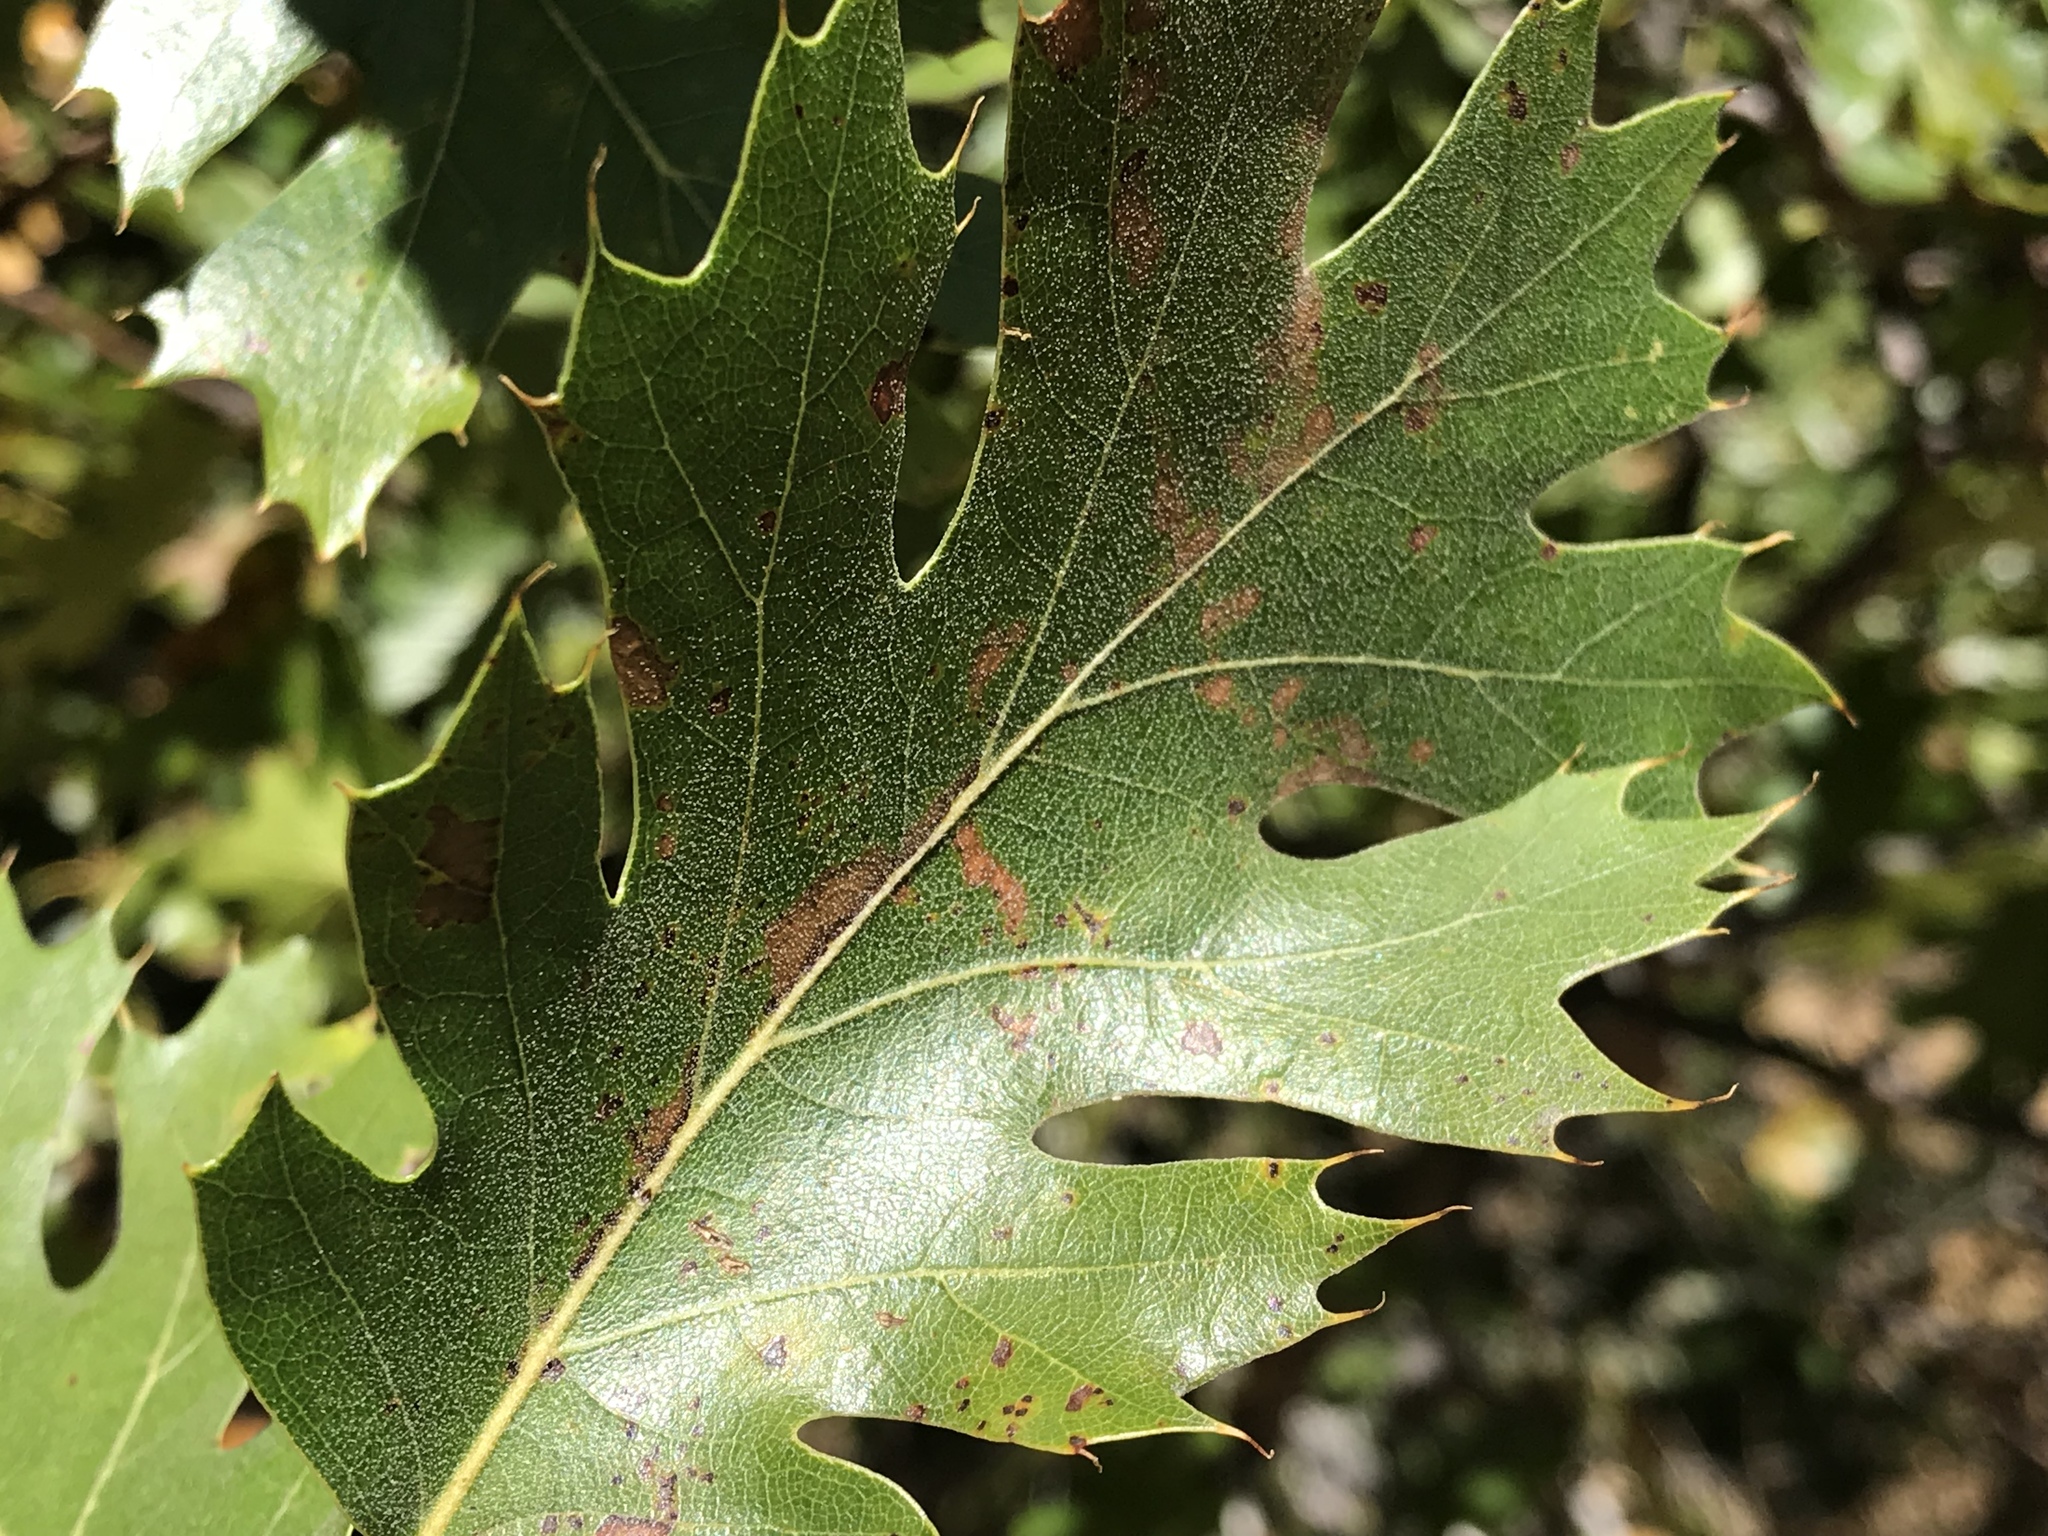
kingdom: Plantae
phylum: Tracheophyta
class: Magnoliopsida
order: Fagales
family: Fagaceae
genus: Quercus
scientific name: Quercus kelloggii
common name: California black oak
